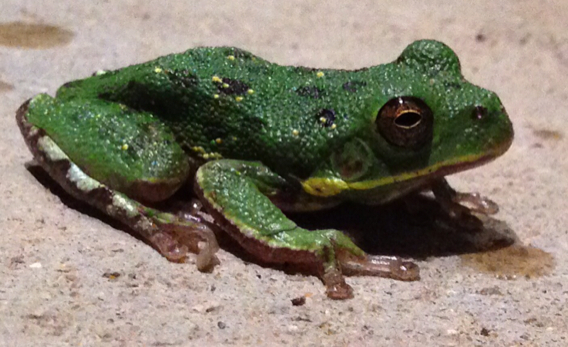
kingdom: Animalia
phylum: Chordata
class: Amphibia
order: Anura
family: Hylidae
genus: Dryophytes
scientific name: Dryophytes gratiosus
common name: Barking treefrog
